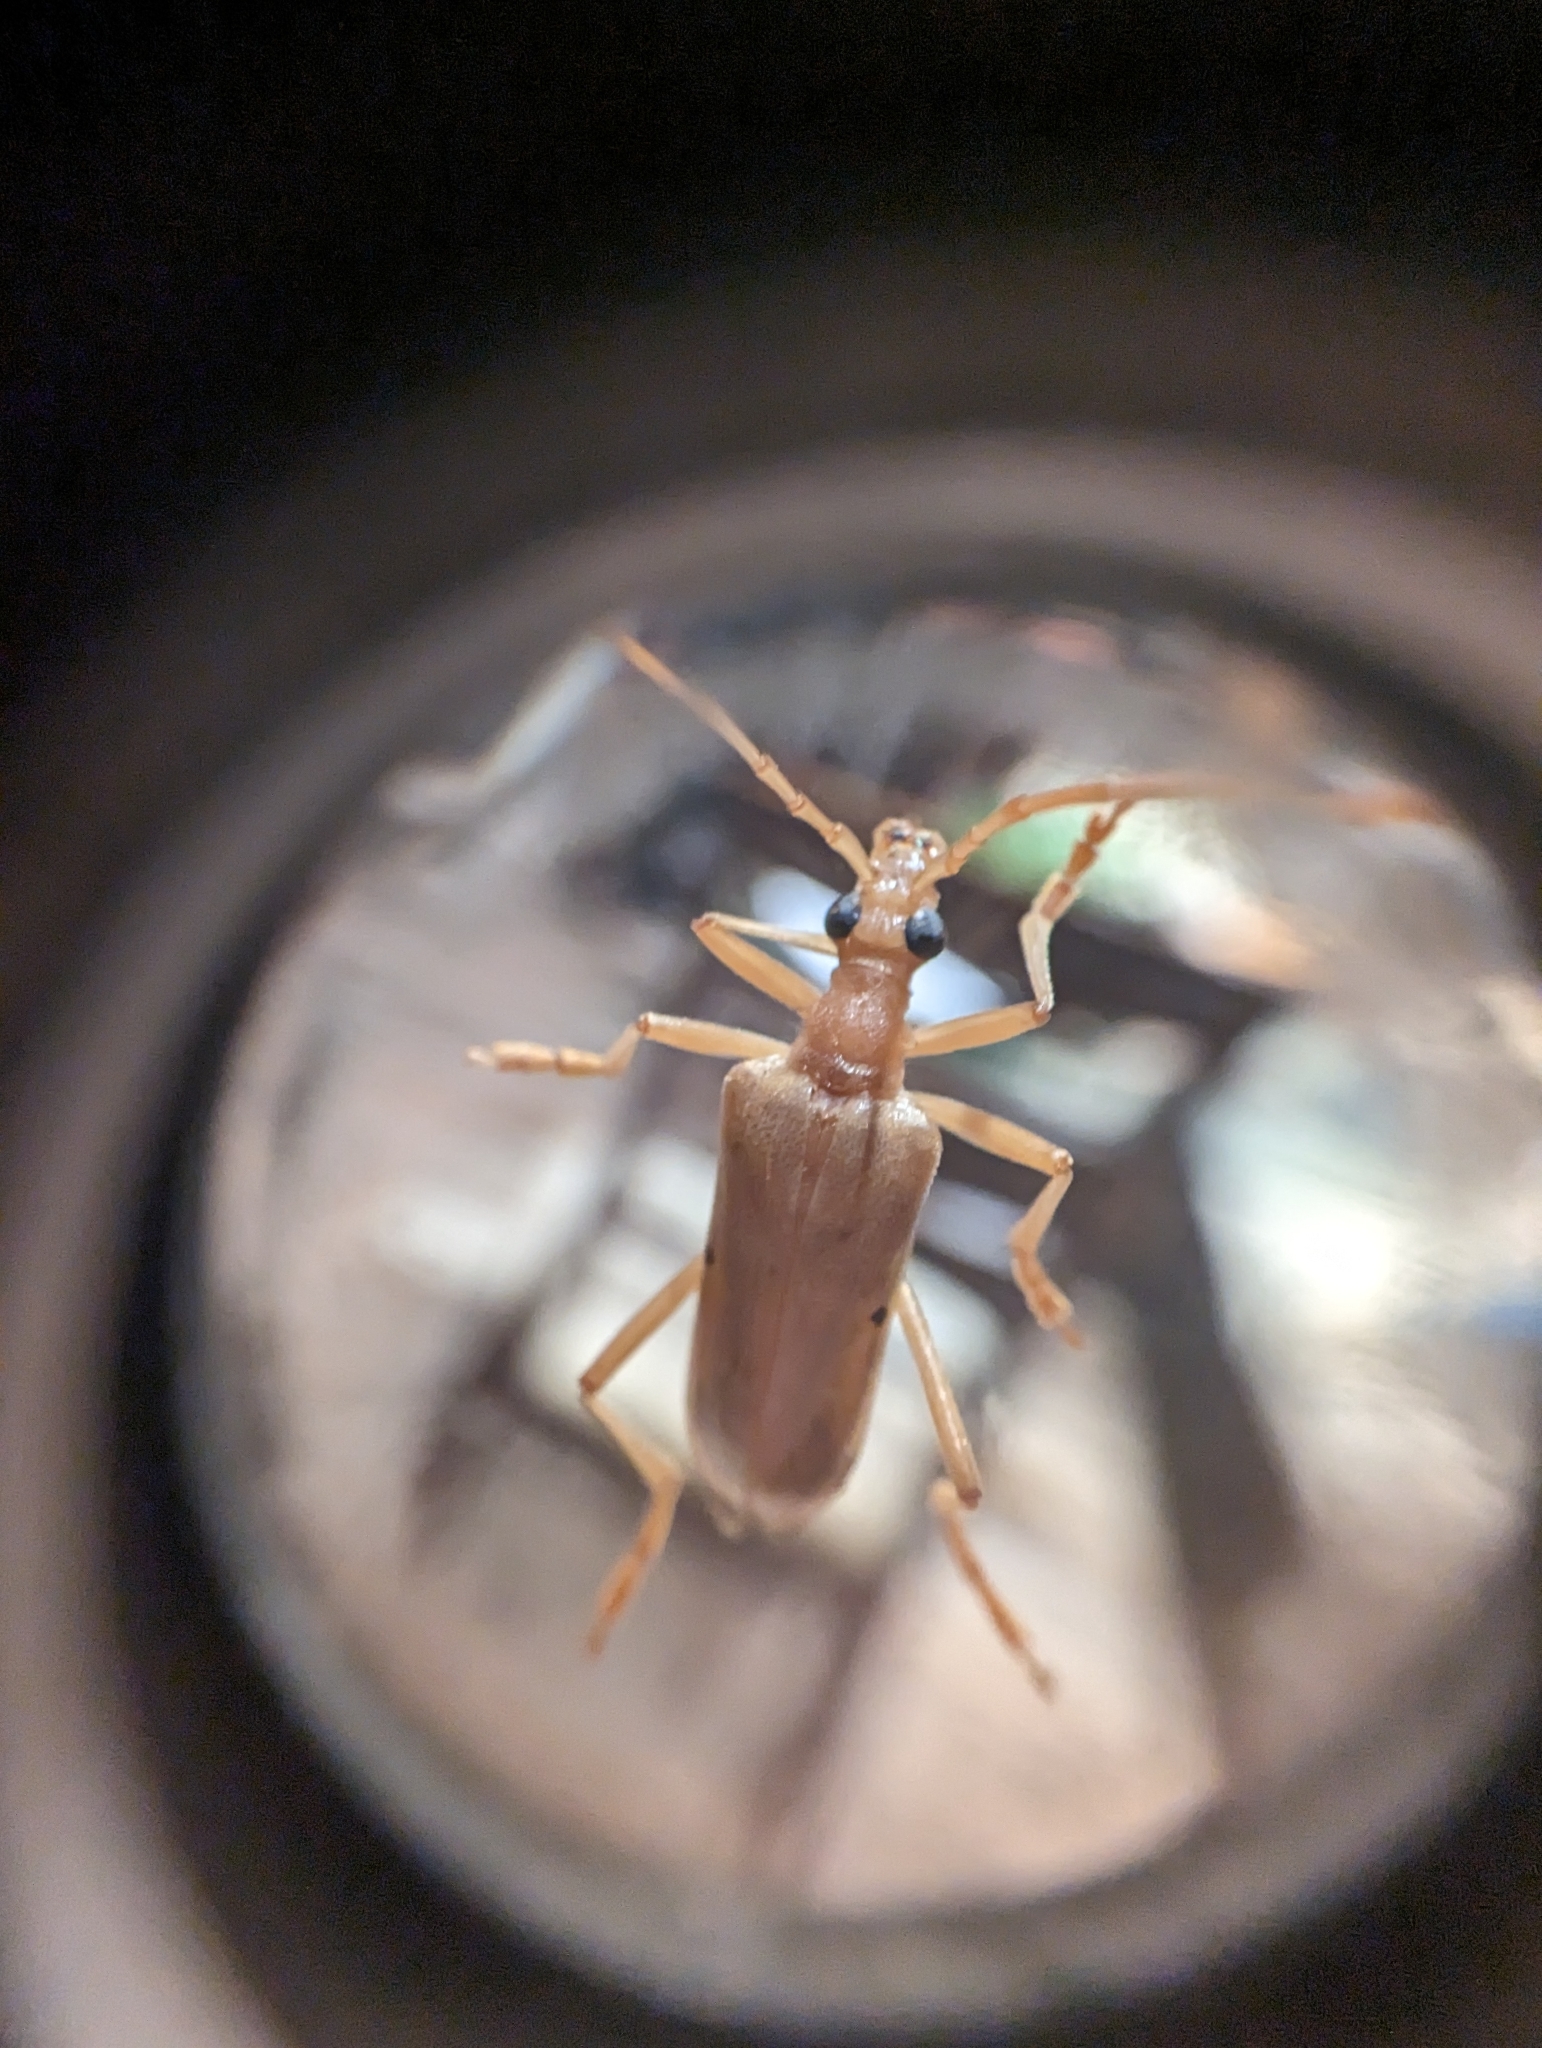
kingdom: Animalia
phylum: Arthropoda
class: Insecta
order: Coleoptera
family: Cerambycidae
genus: Centrodera
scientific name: Centrodera spurca
